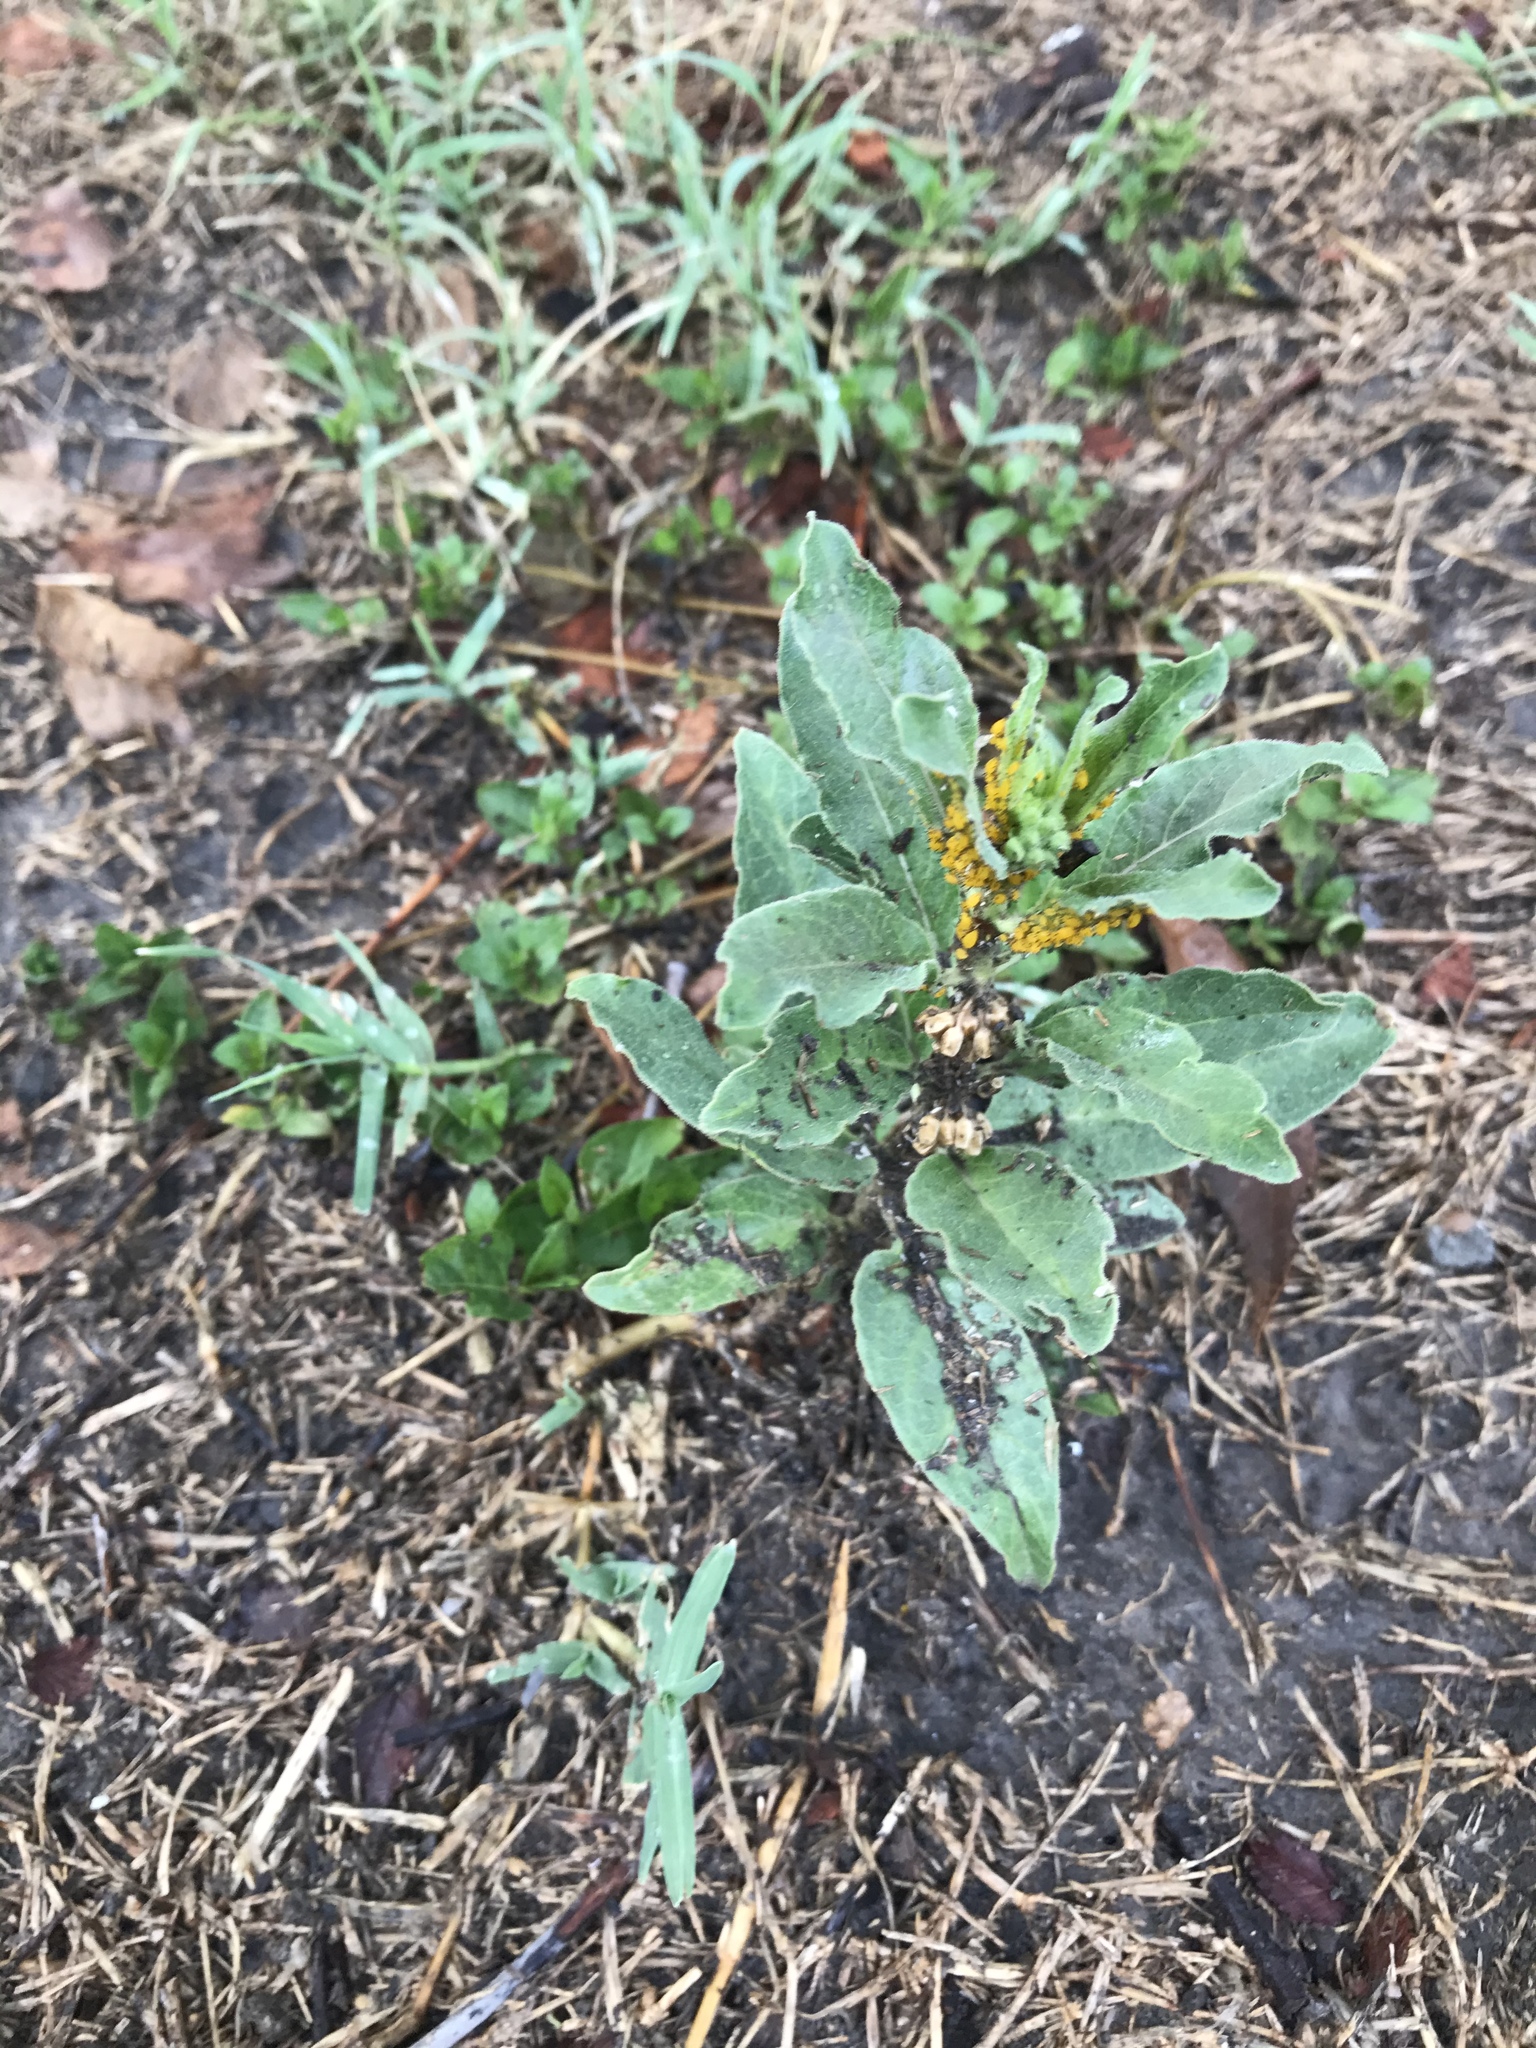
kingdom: Plantae
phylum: Tracheophyta
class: Magnoliopsida
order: Gentianales
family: Apocynaceae
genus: Asclepias
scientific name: Asclepias oenotheroides
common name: Zizotes milkweed
